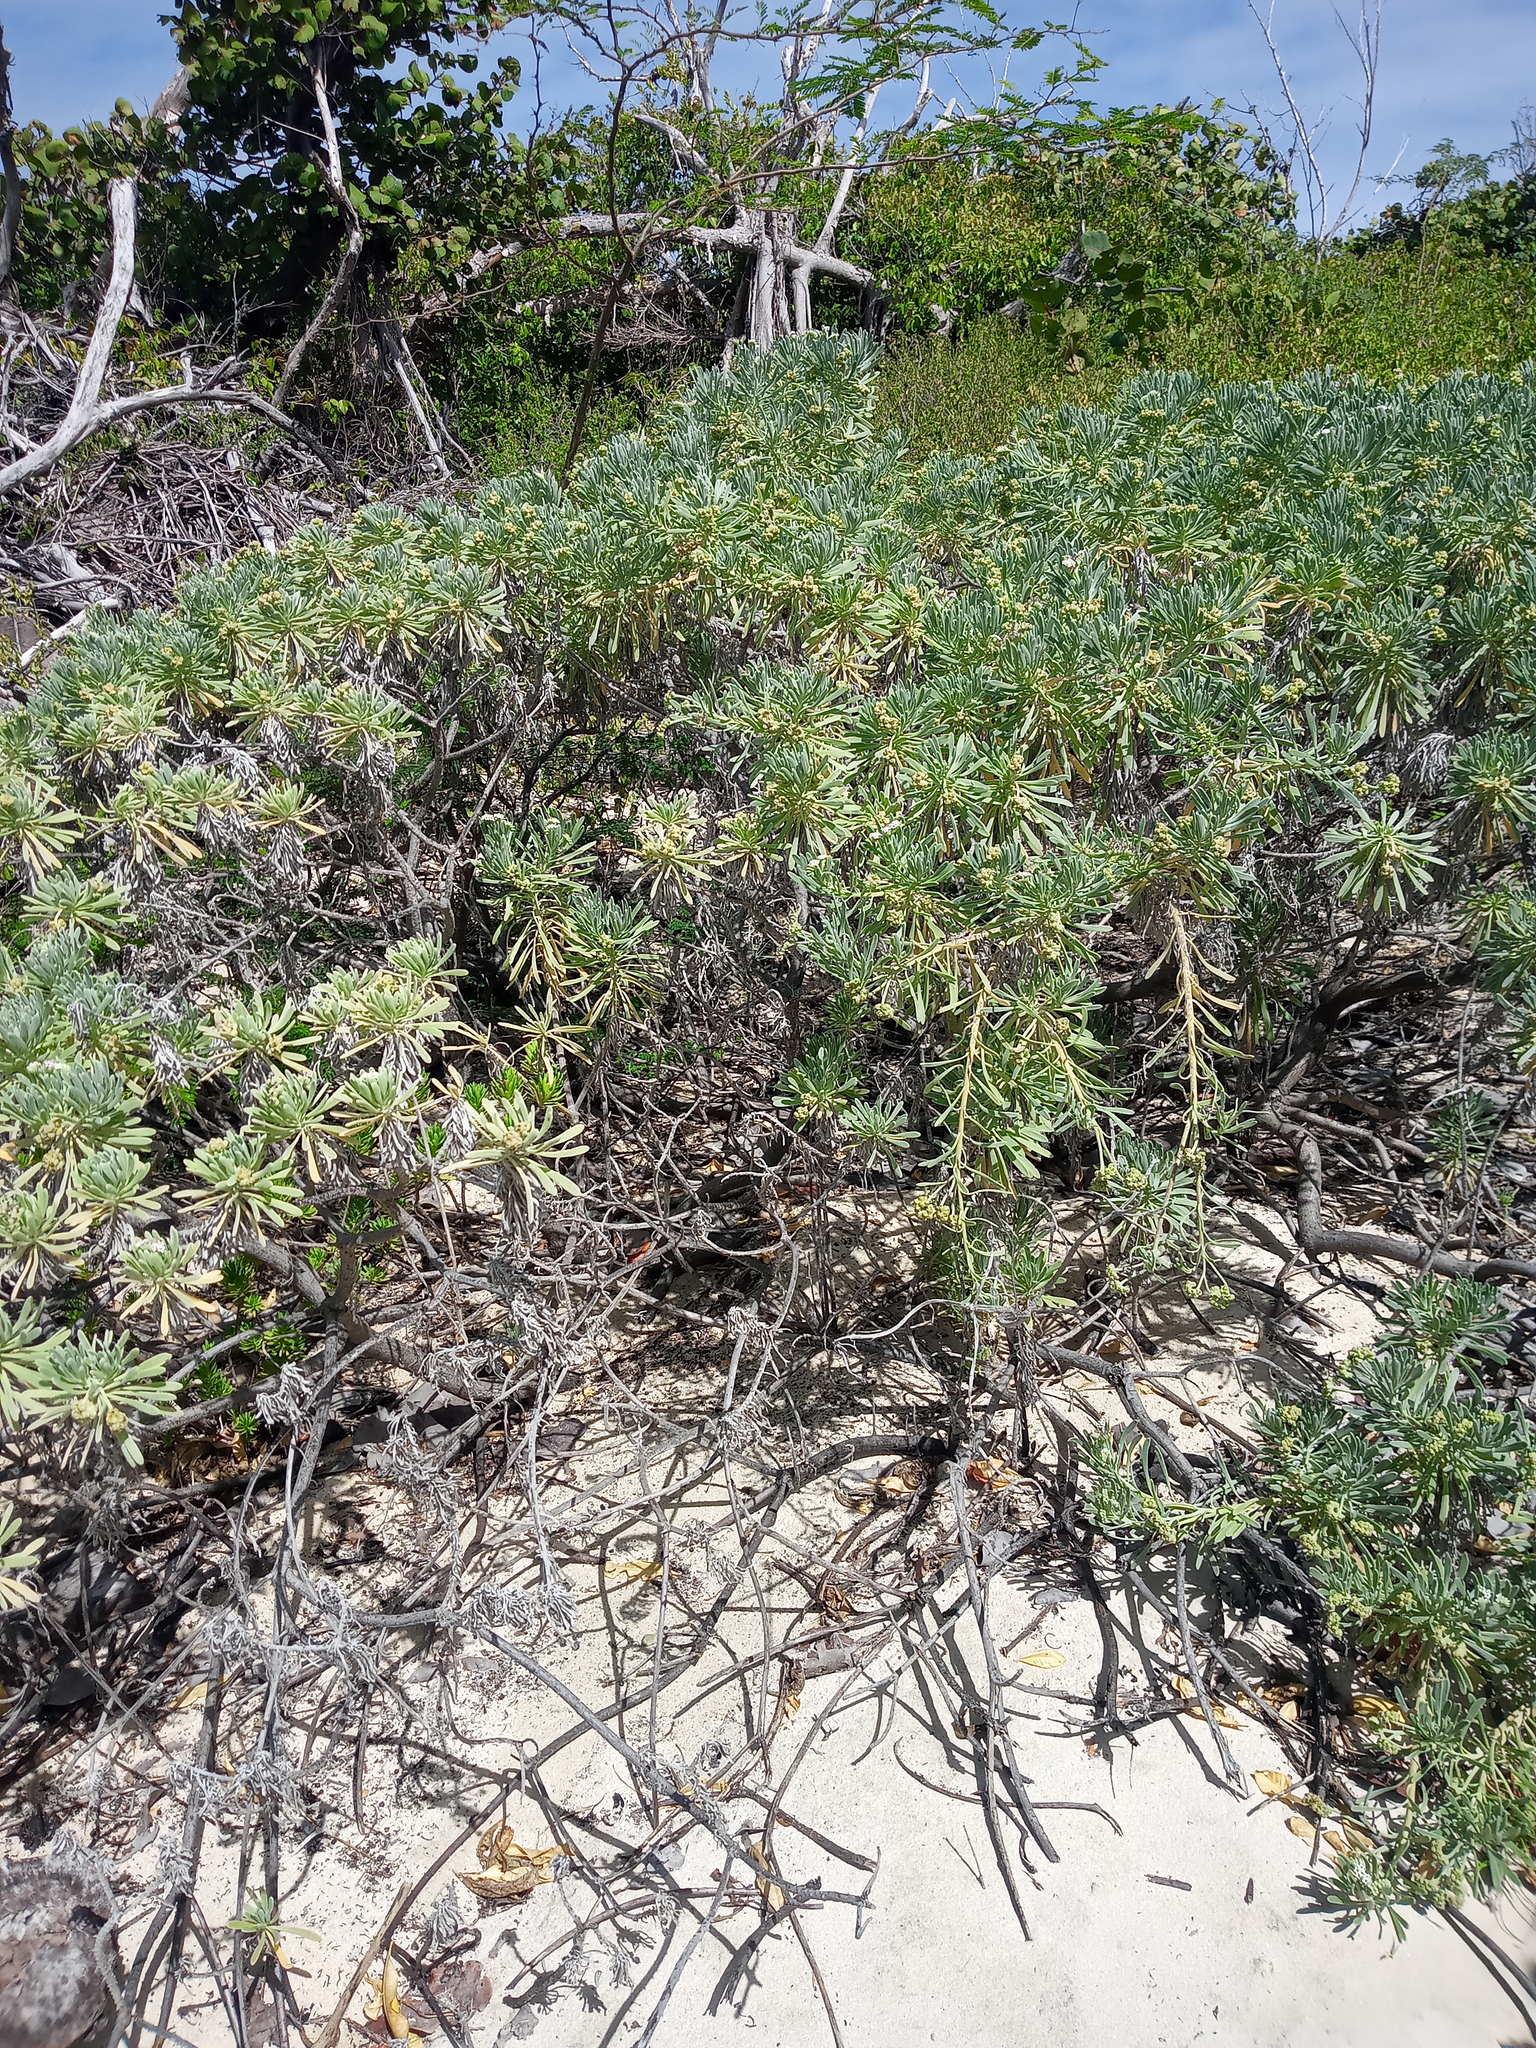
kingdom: Plantae
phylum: Tracheophyta
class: Magnoliopsida
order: Boraginales
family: Heliotropiaceae
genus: Tournefortia
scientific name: Tournefortia gnaphalodes
